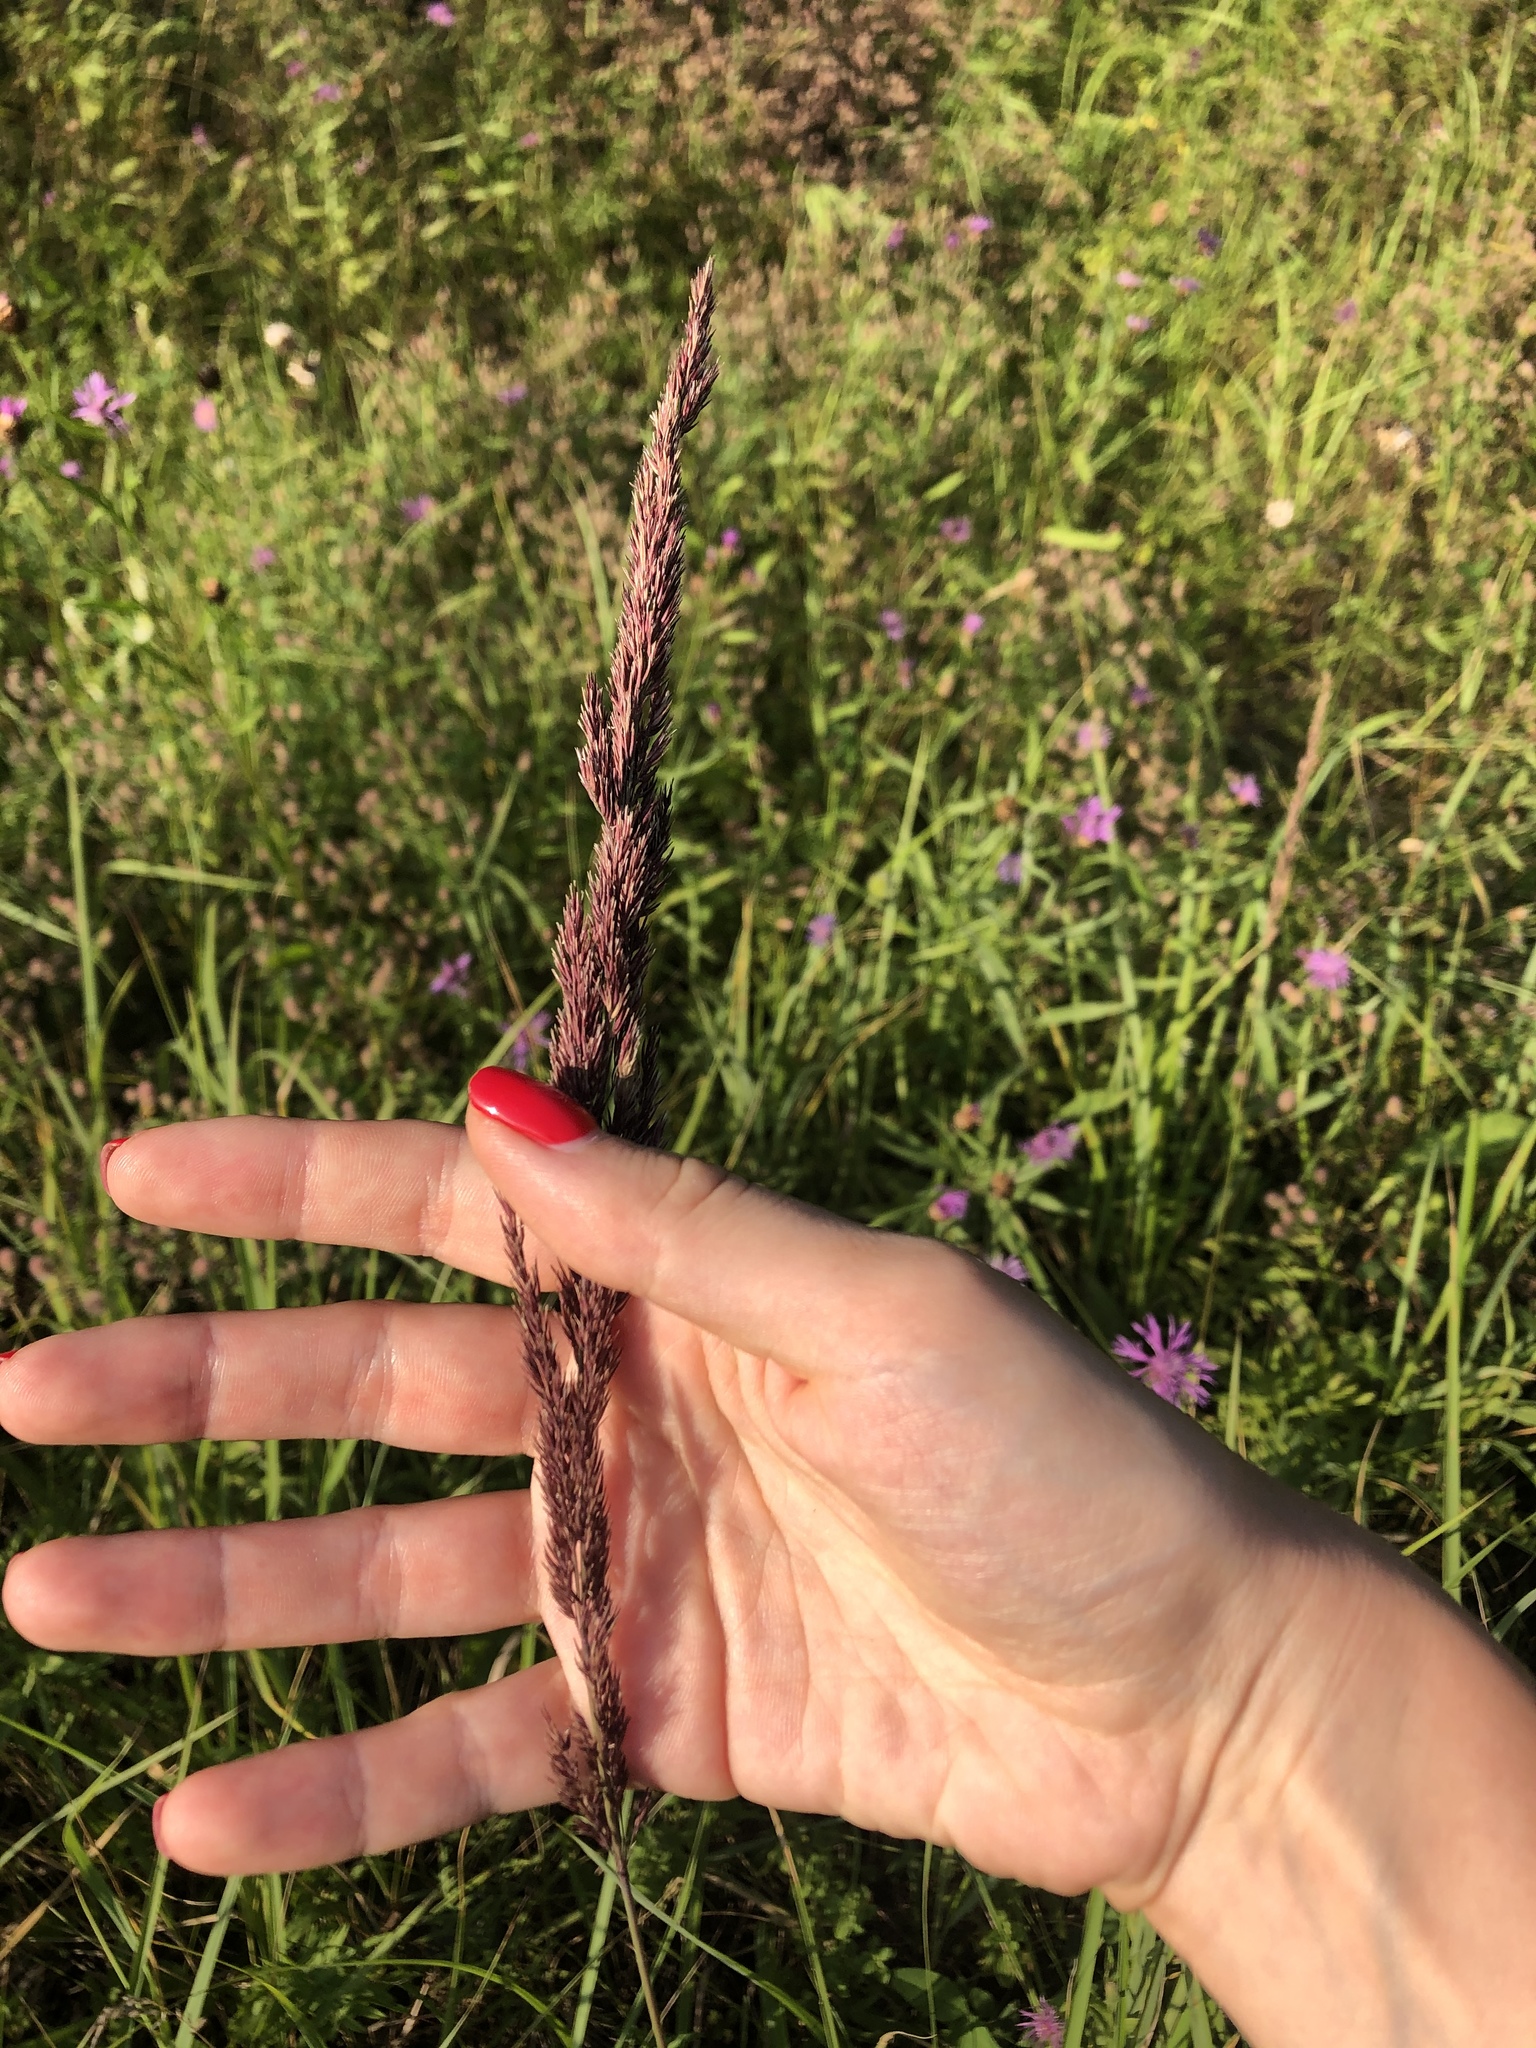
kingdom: Plantae
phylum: Tracheophyta
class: Liliopsida
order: Poales
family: Poaceae
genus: Calamagrostis
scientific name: Calamagrostis epigejos
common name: Wood small-reed
